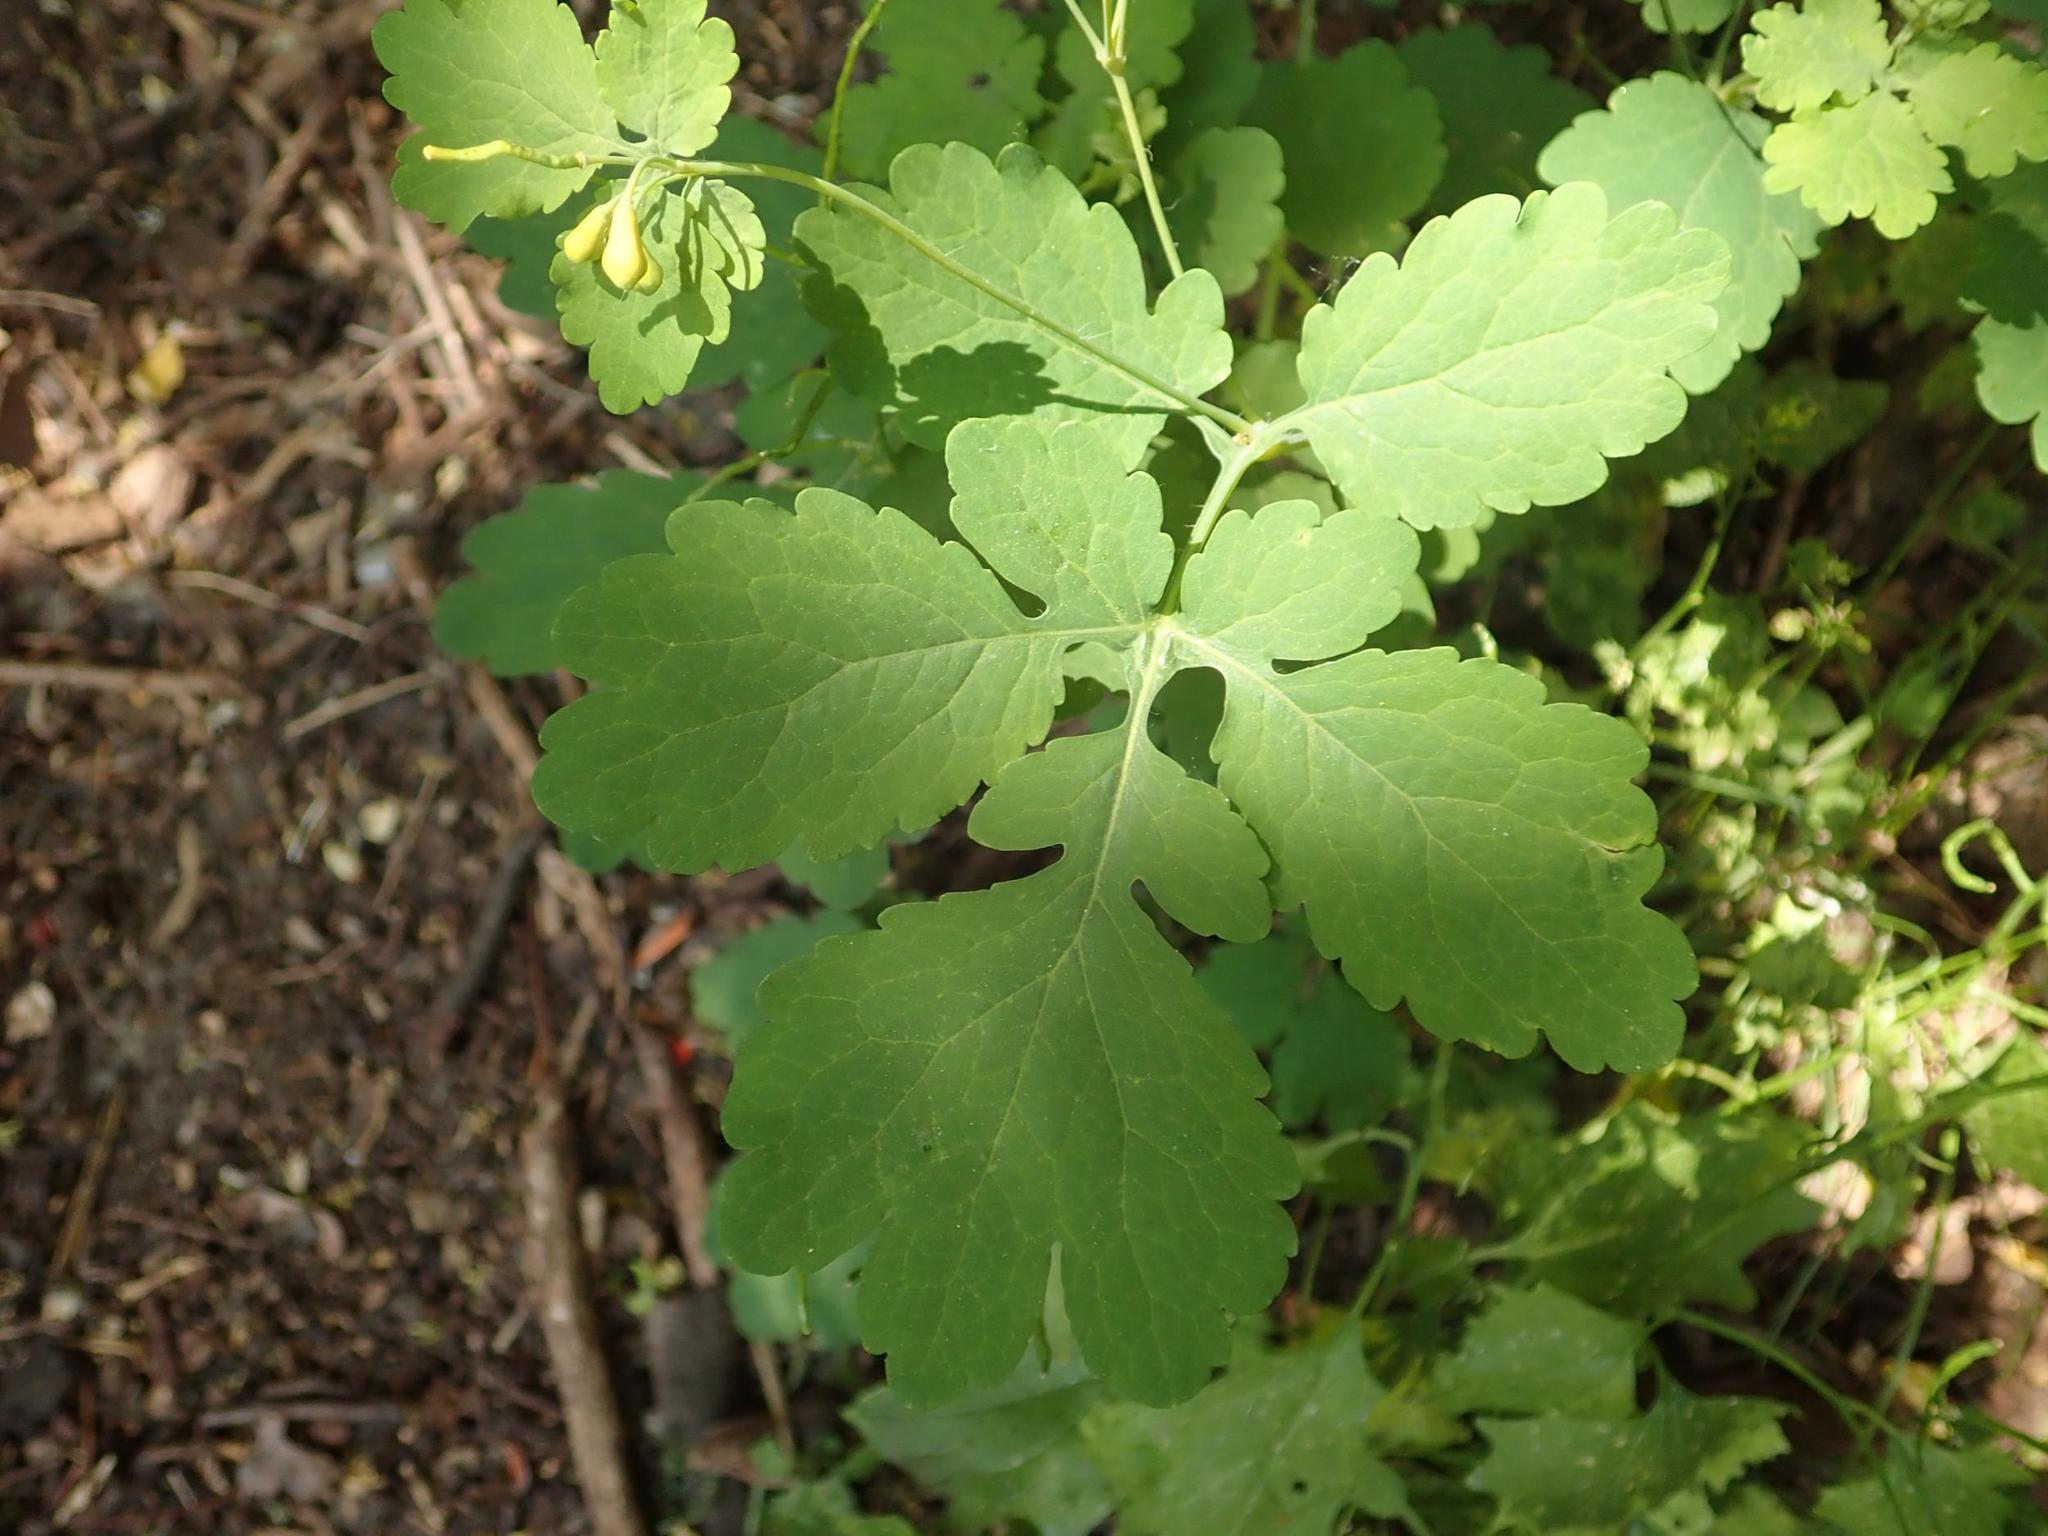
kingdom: Plantae
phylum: Tracheophyta
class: Magnoliopsida
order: Ranunculales
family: Papaveraceae
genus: Chelidonium
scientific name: Chelidonium majus
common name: Greater celandine
